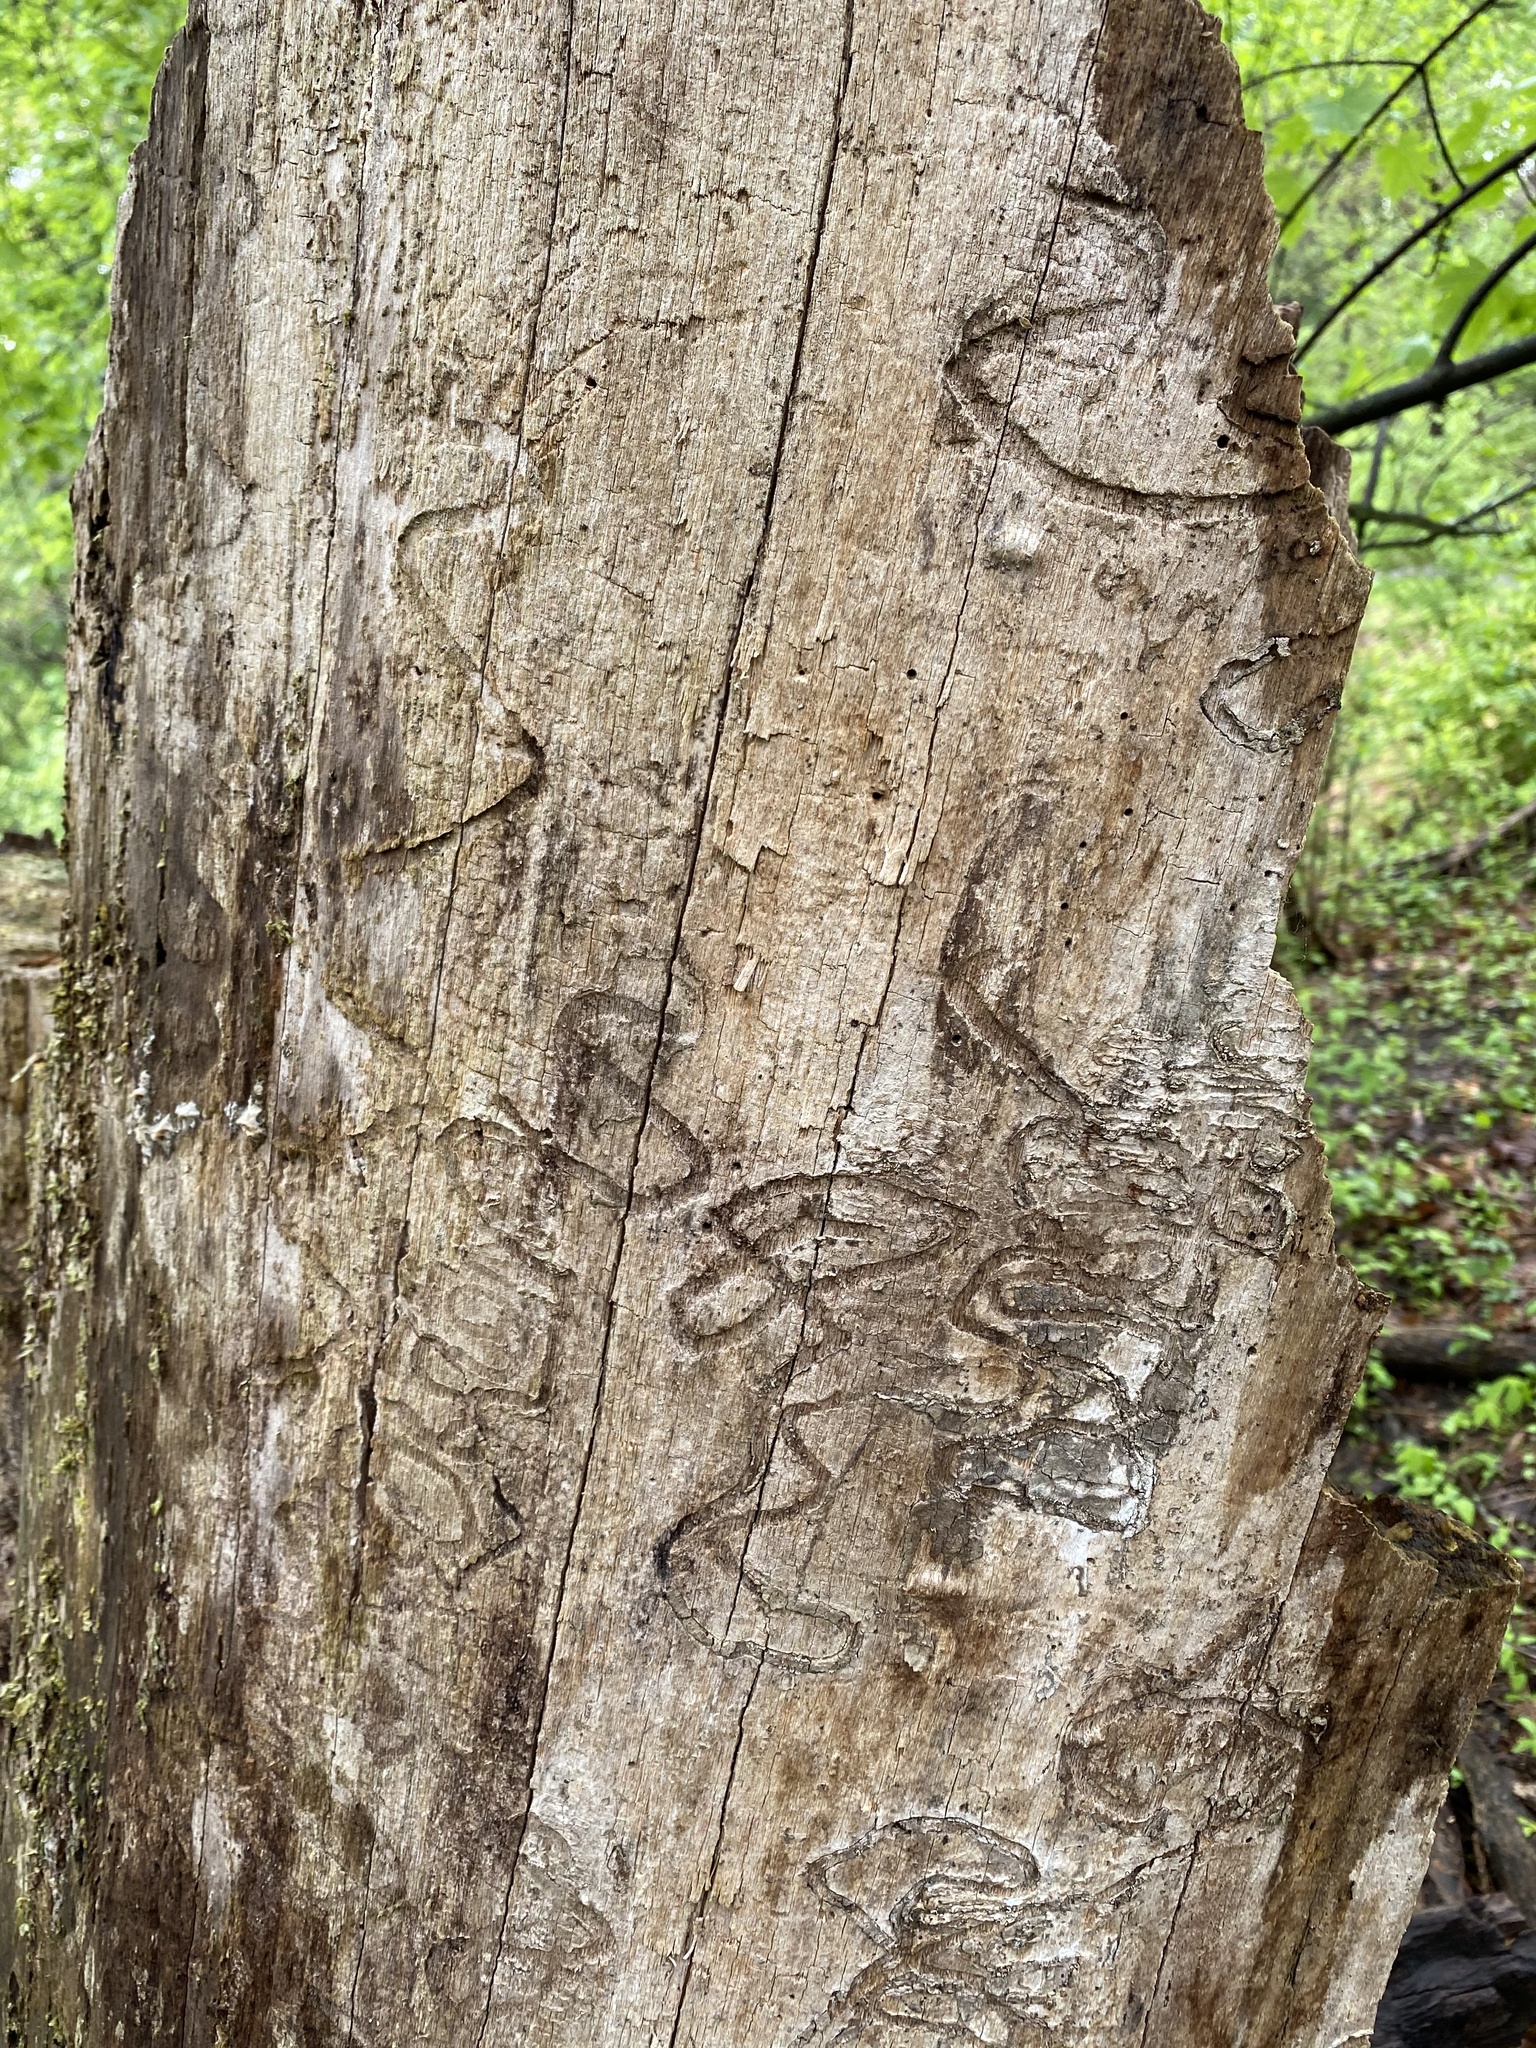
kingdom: Animalia
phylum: Arthropoda
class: Insecta
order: Coleoptera
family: Buprestidae
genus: Agrilus
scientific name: Agrilus planipennis
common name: Emerald ash borer
